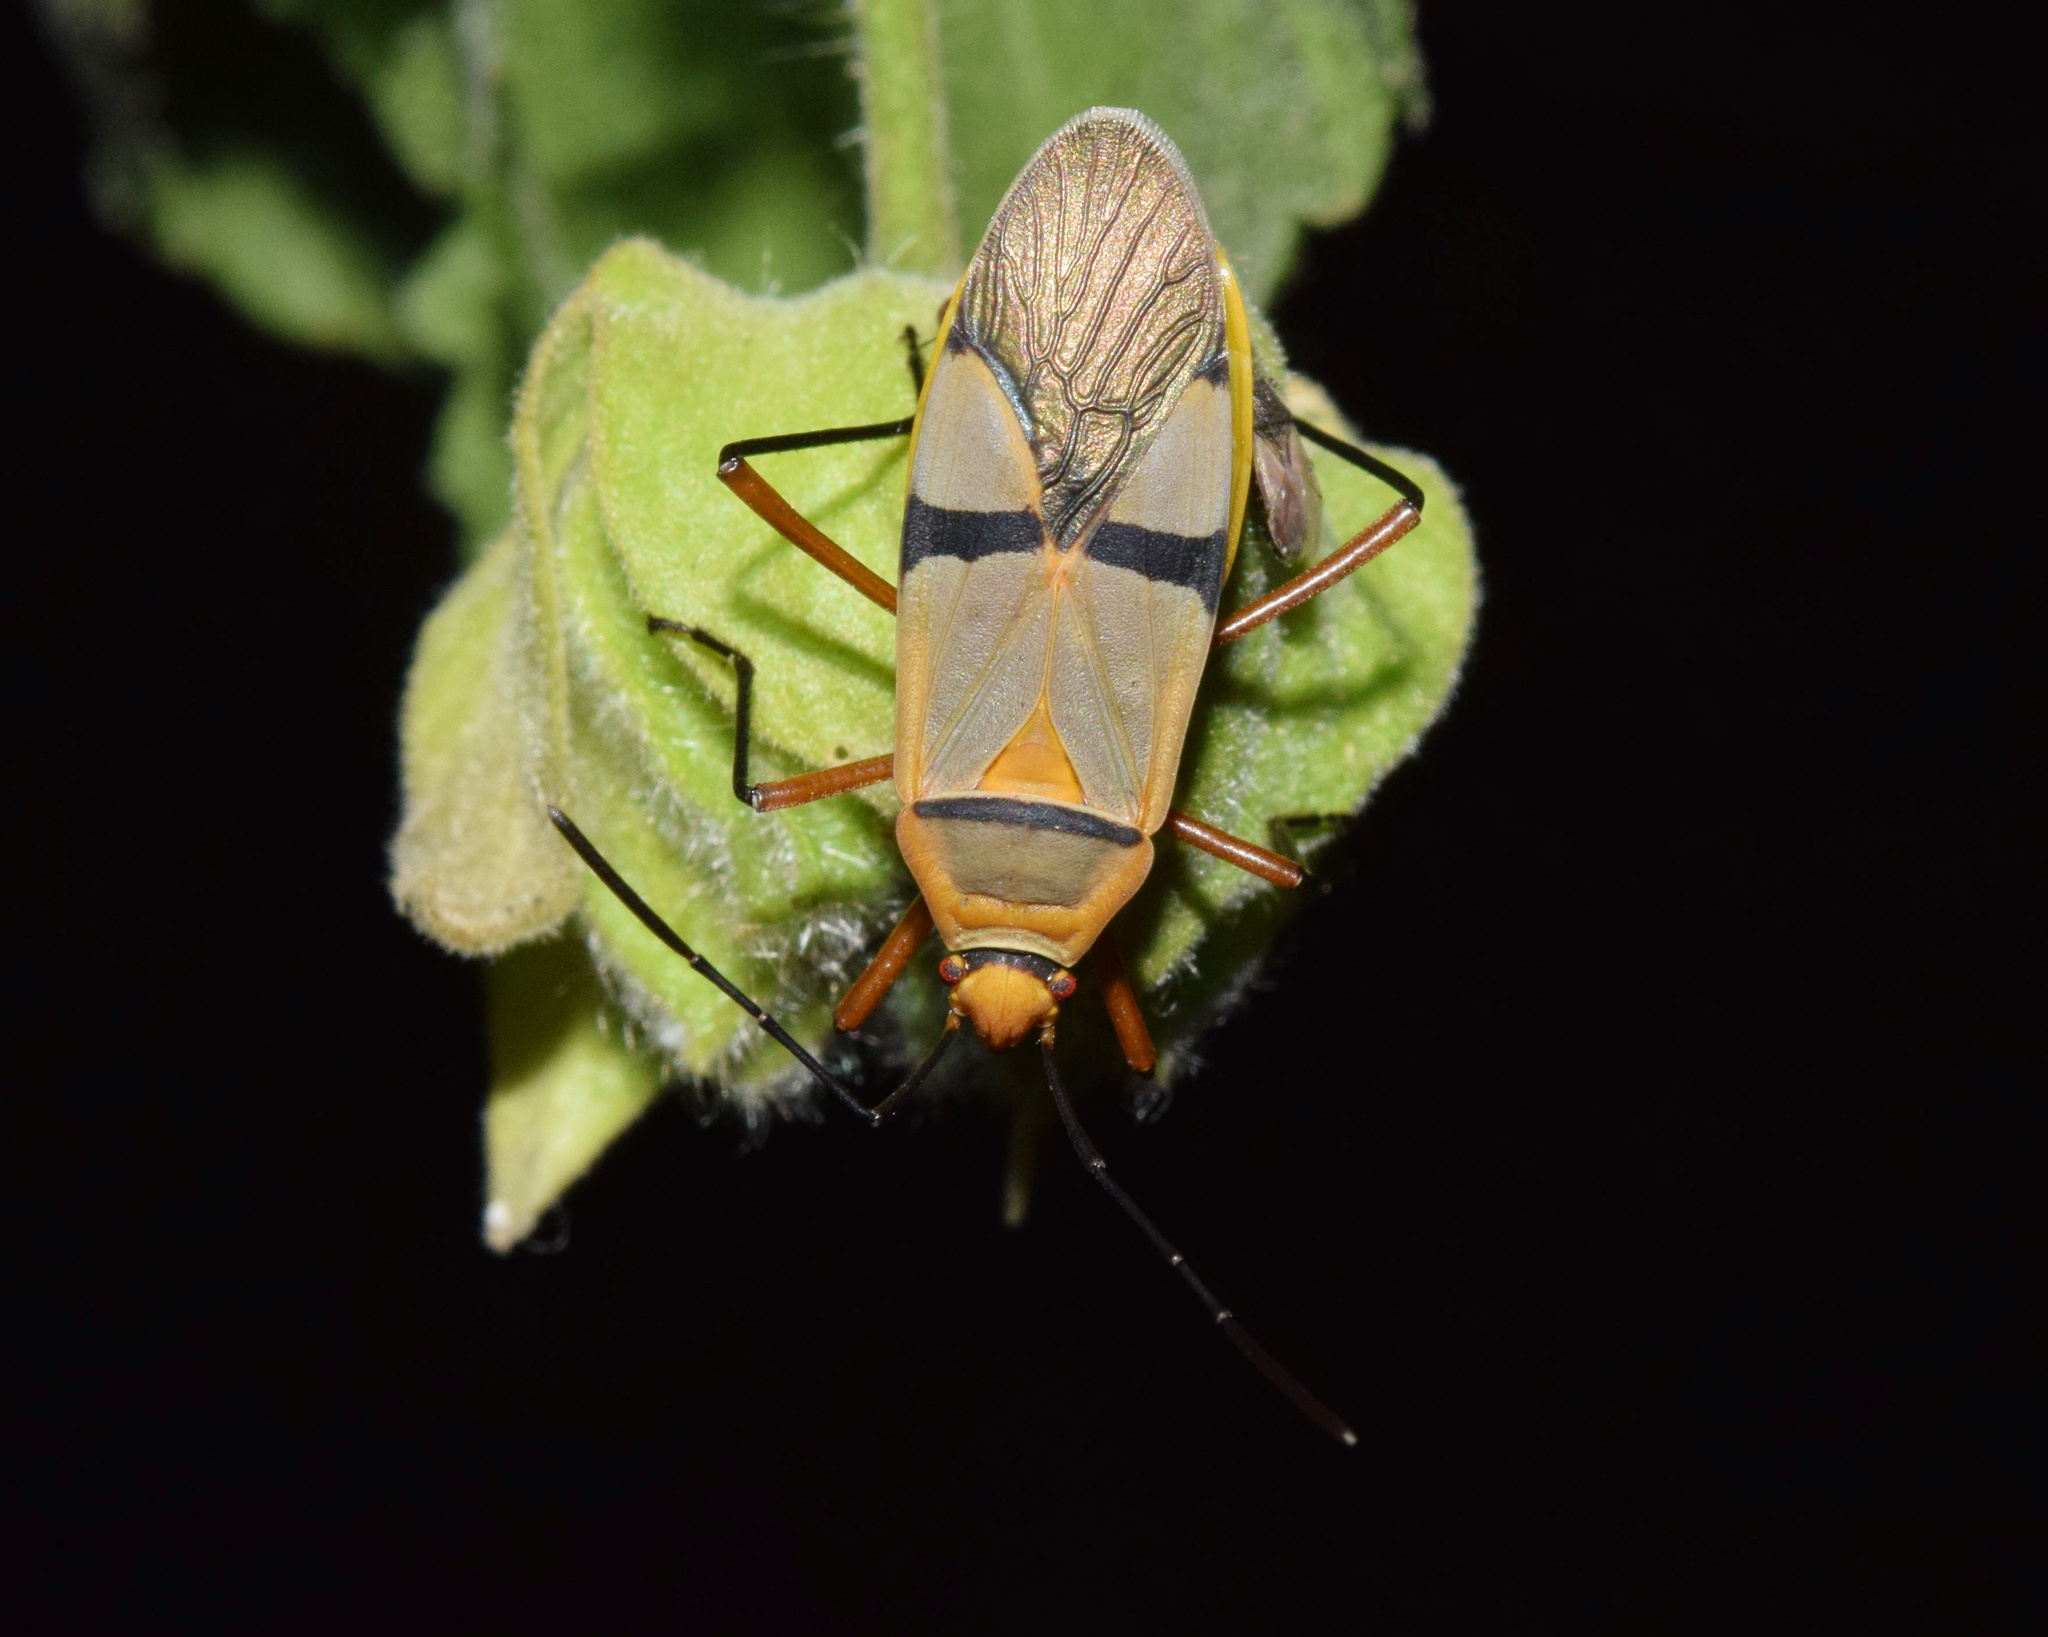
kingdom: Animalia
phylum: Arthropoda
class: Insecta
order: Hemiptera
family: Pyrrhocoridae
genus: Dysdercus
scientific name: Dysdercus
